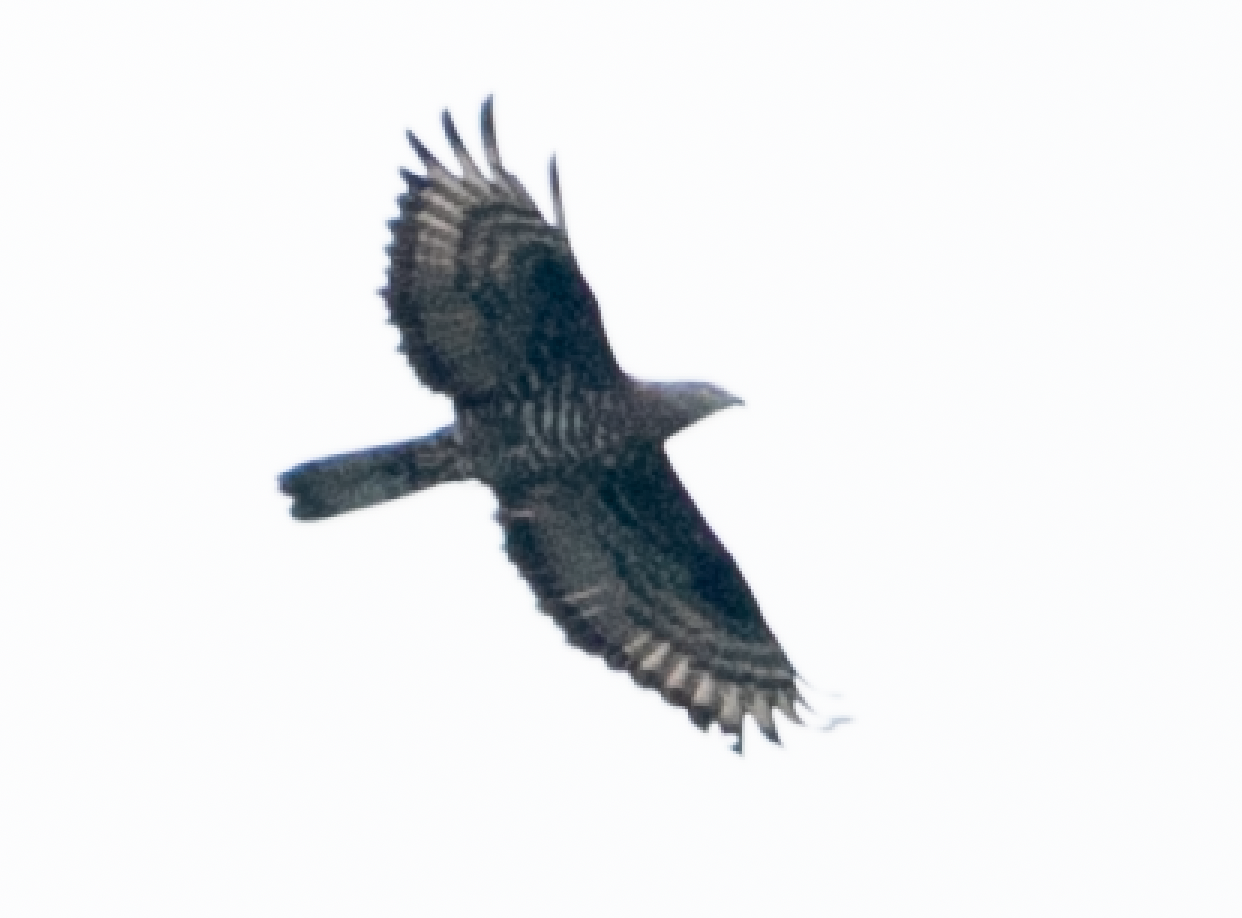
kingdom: Animalia
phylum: Chordata
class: Aves
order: Accipitriformes
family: Accipitridae
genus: Pernis
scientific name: Pernis apivorus
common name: European honey buzzard
